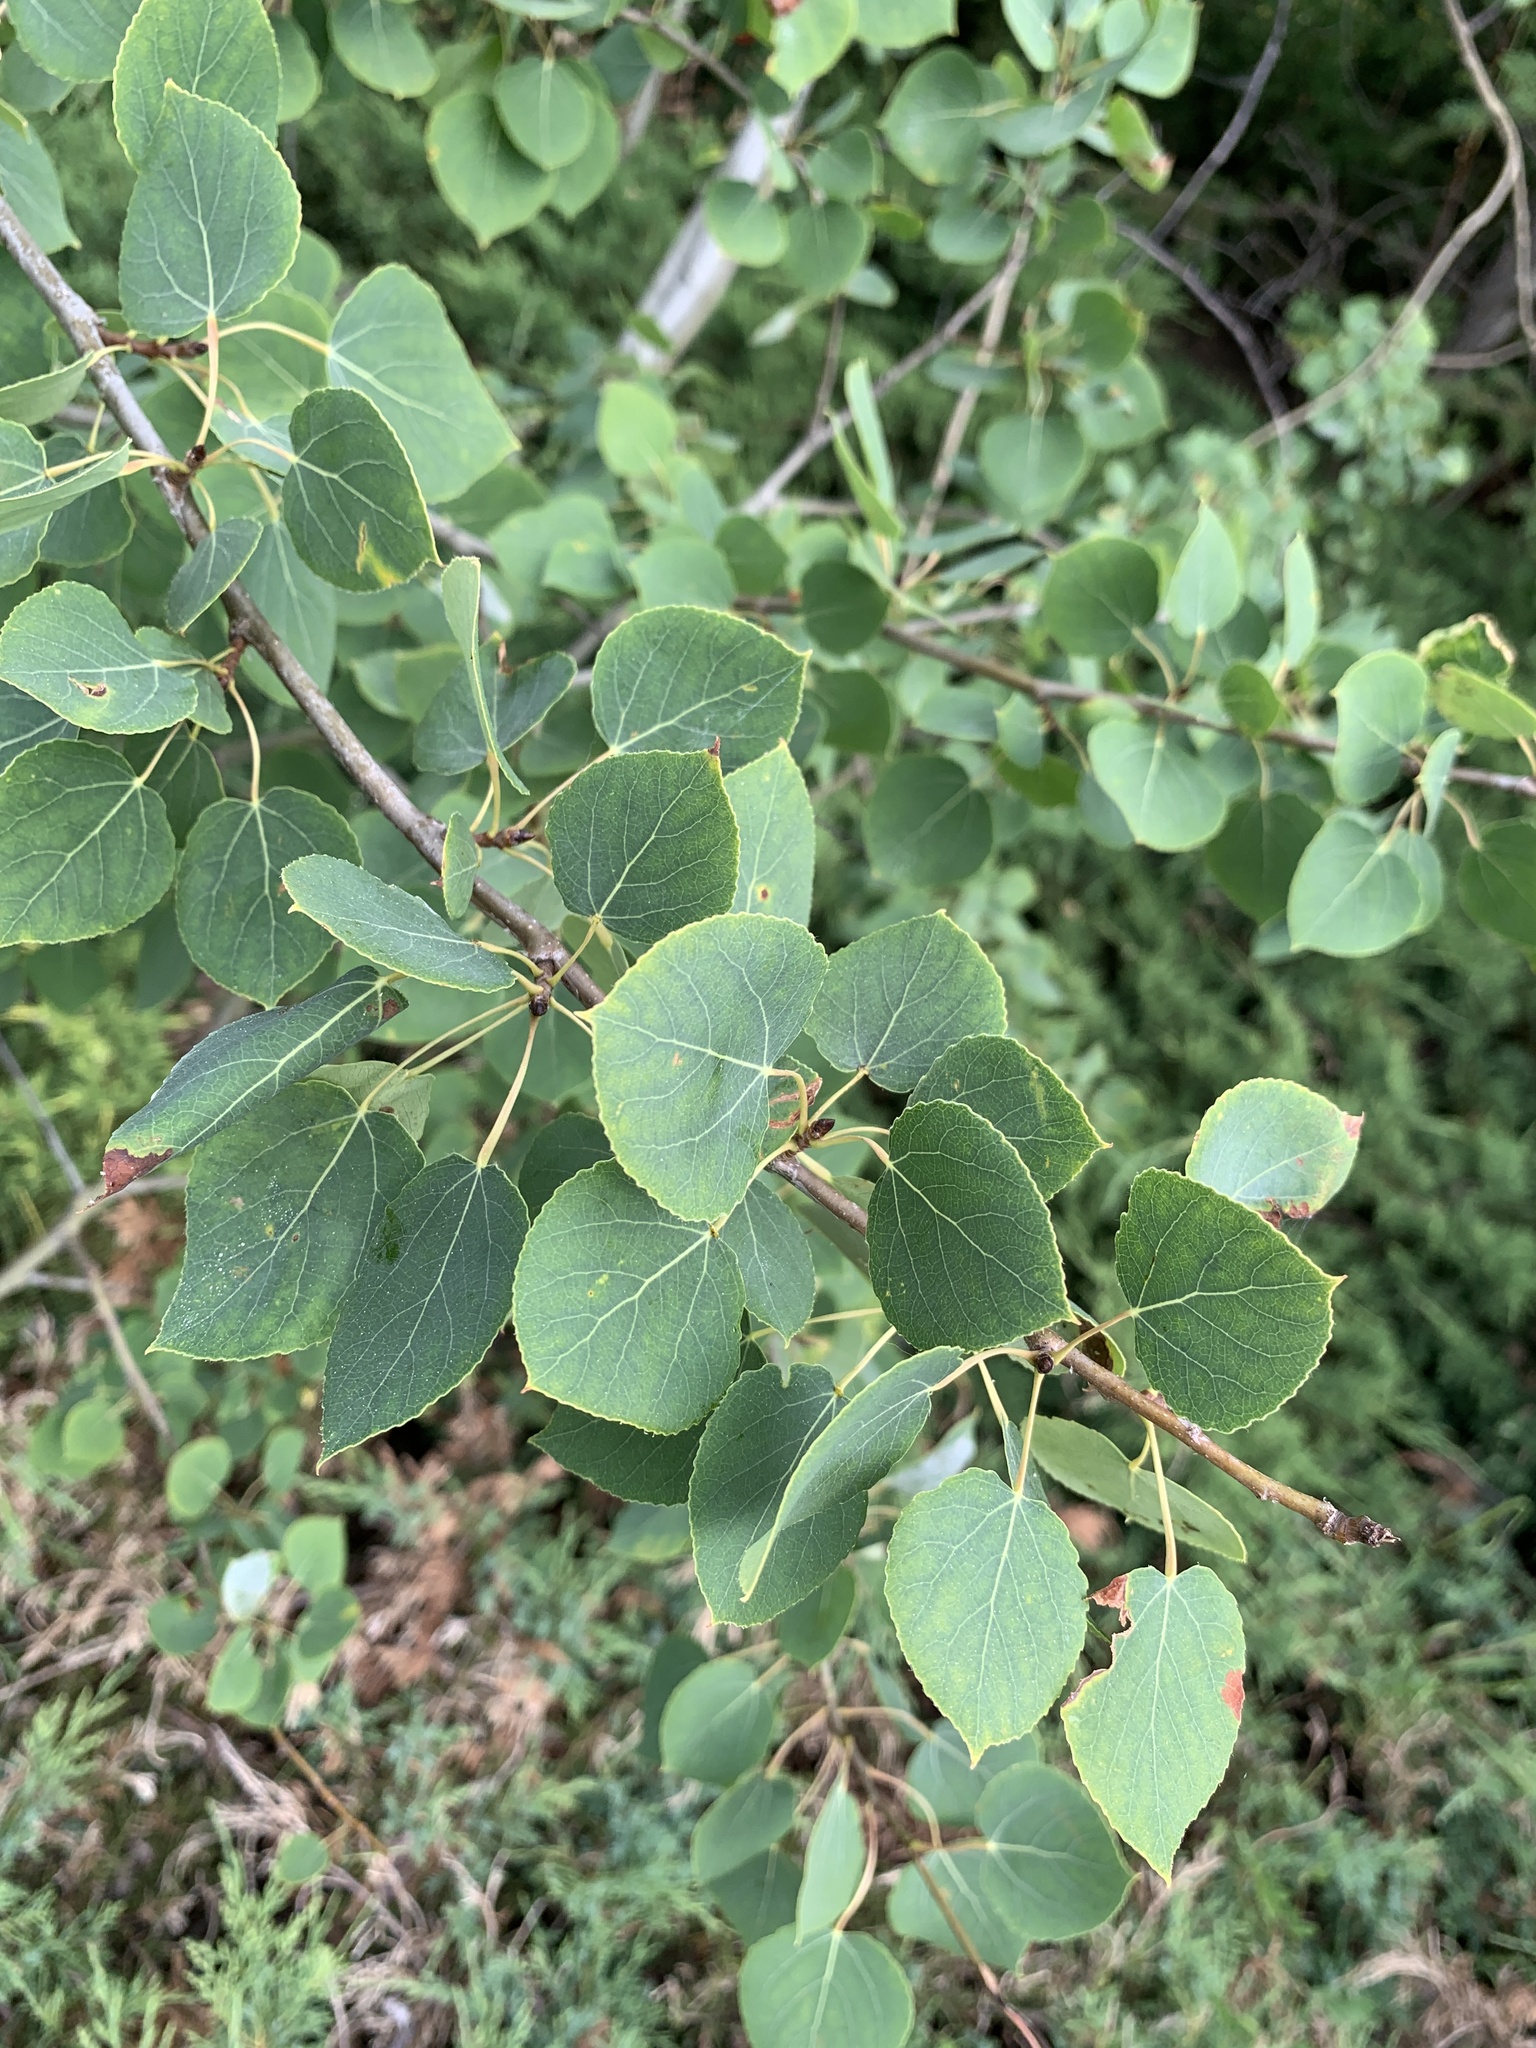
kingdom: Plantae
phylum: Tracheophyta
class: Magnoliopsida
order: Malpighiales
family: Salicaceae
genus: Populus
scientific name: Populus tremuloides
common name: Quaking aspen
